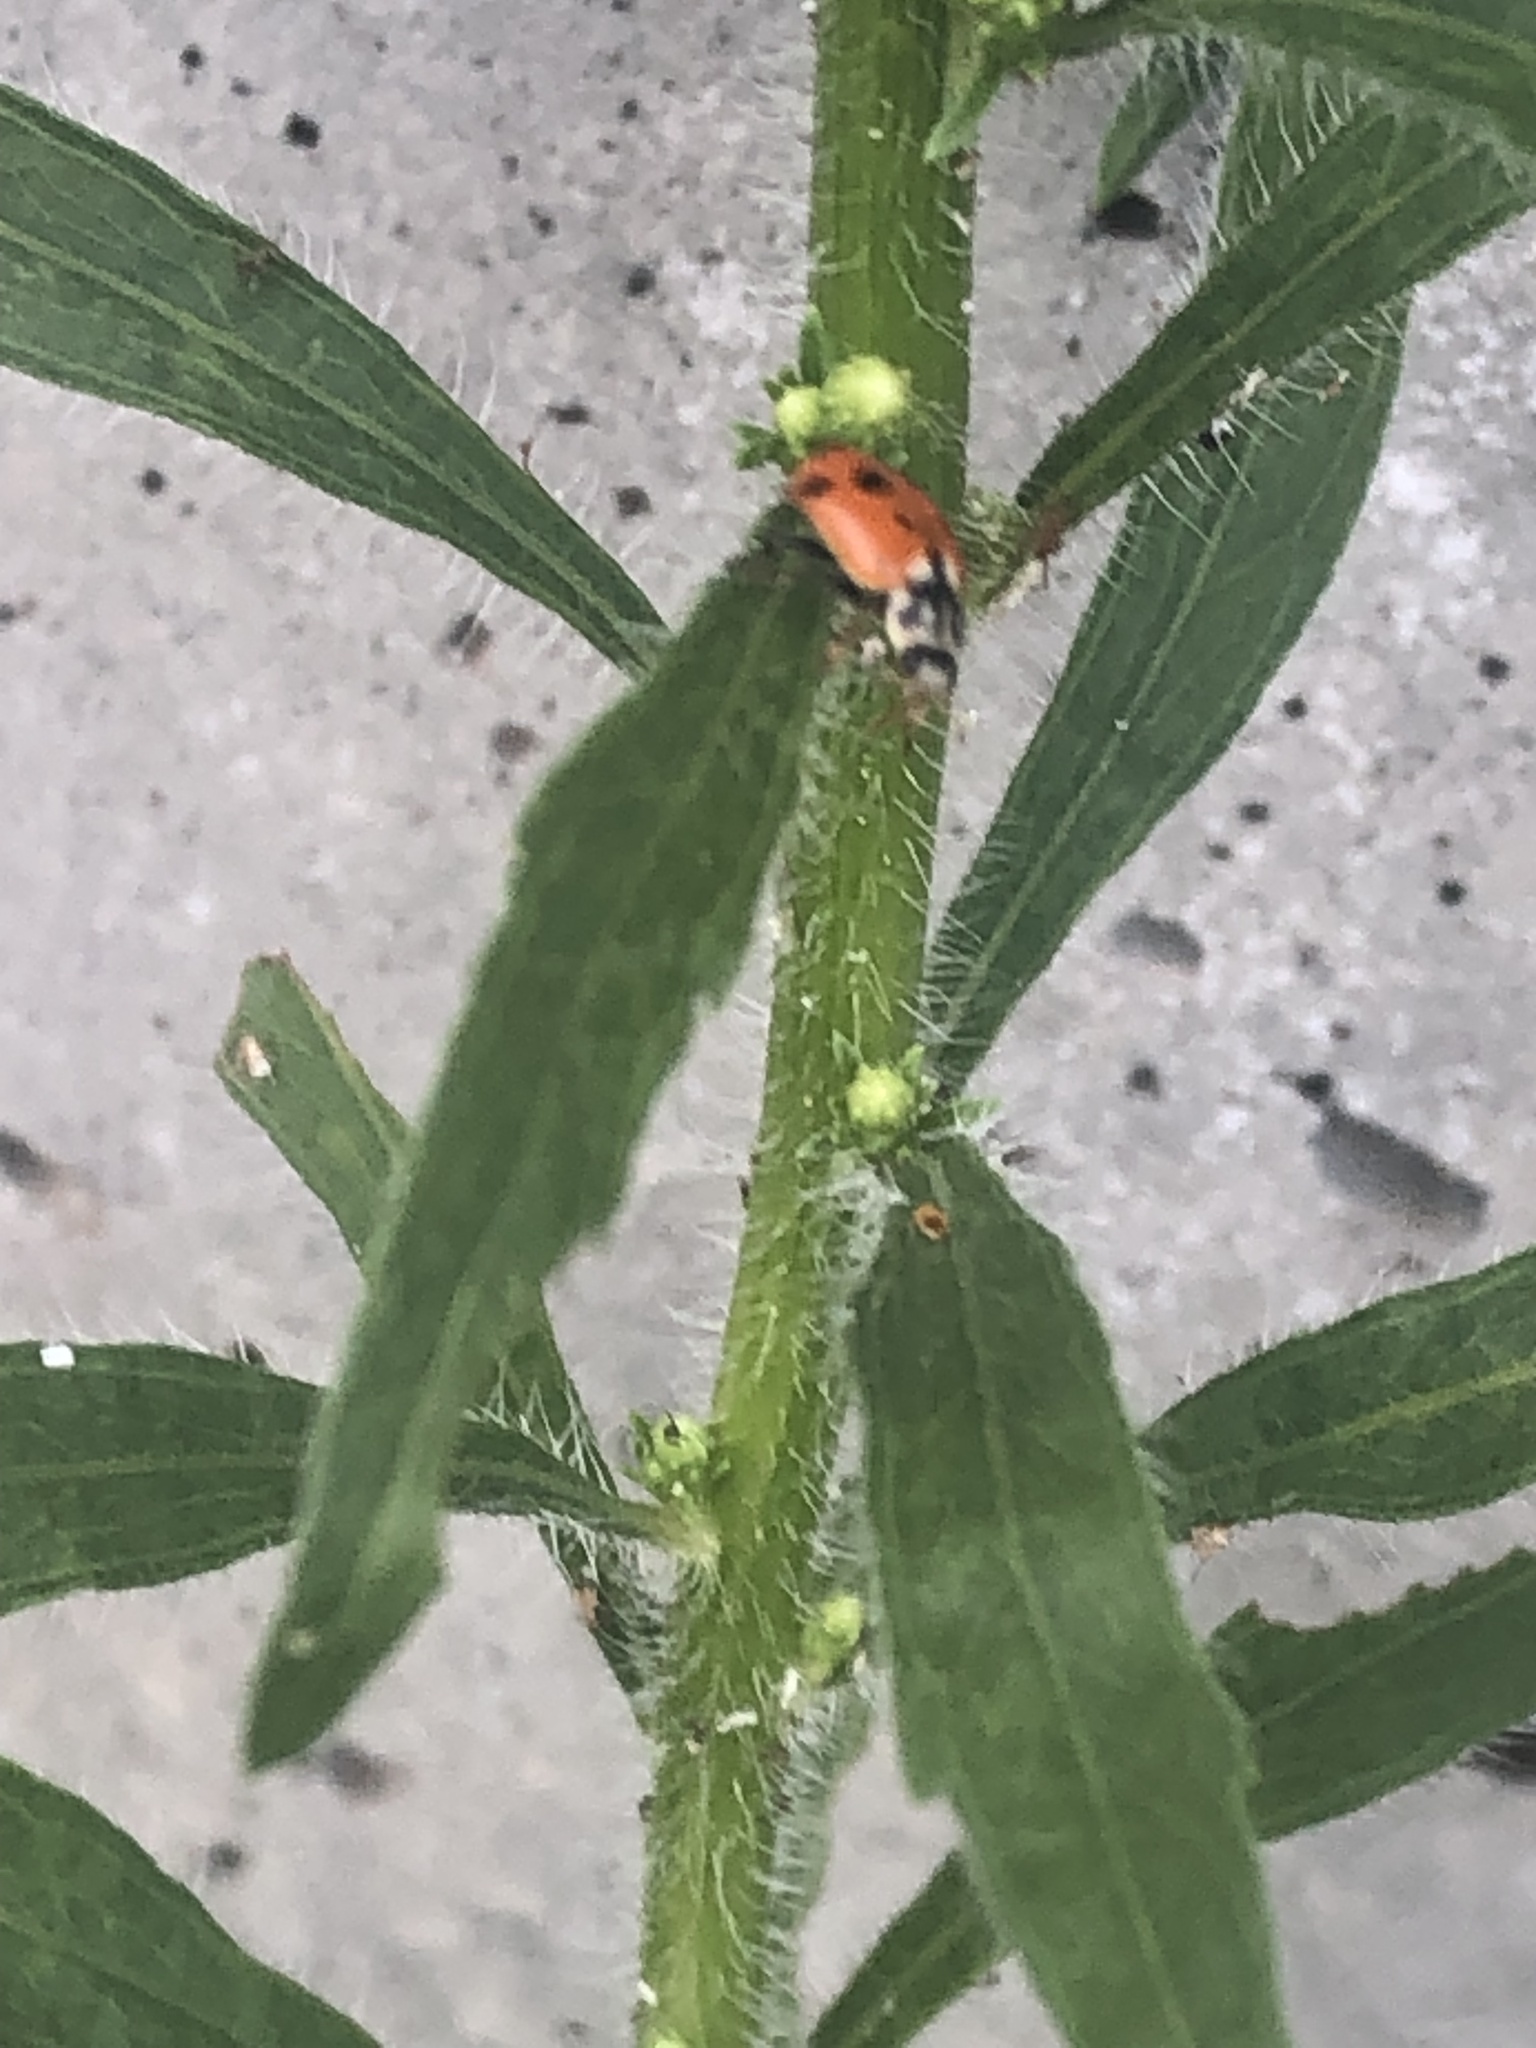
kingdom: Animalia
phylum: Arthropoda
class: Insecta
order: Coleoptera
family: Coccinellidae
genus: Hippodamia
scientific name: Hippodamia variegata
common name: Ladybird beetle
